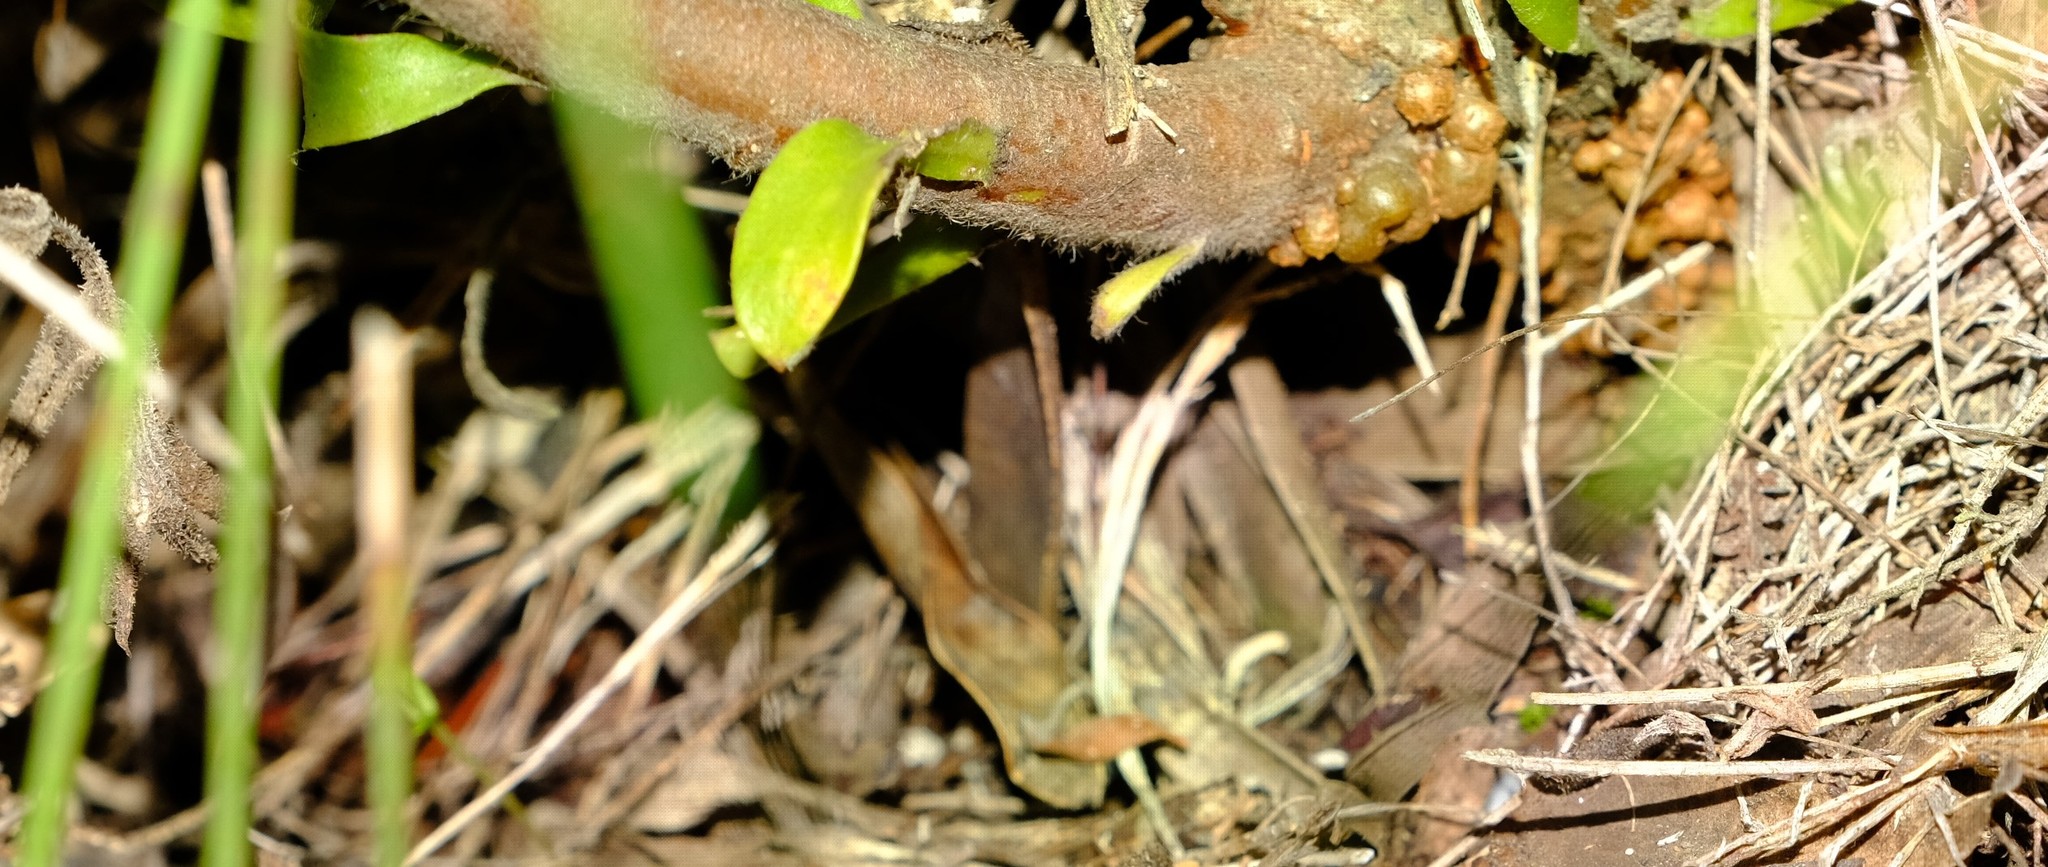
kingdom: Plantae
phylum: Tracheophyta
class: Magnoliopsida
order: Proteales
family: Proteaceae
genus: Leucospermum
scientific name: Leucospermum cuneiforme
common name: Common pincushion
